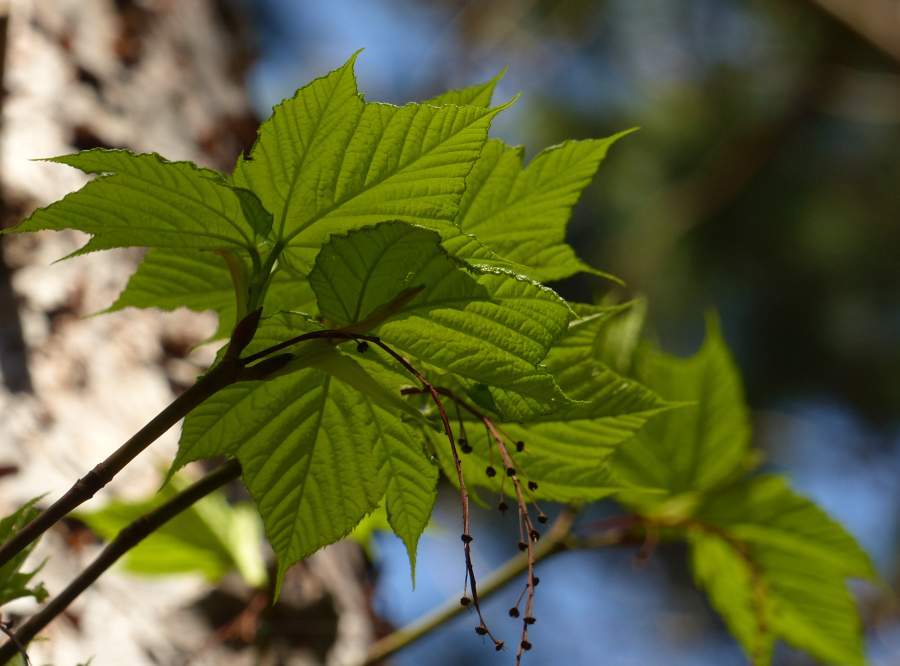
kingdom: Plantae
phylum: Tracheophyta
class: Magnoliopsida
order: Sapindales
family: Sapindaceae
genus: Acer
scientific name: Acer pensylvanicum
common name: Moosewood
